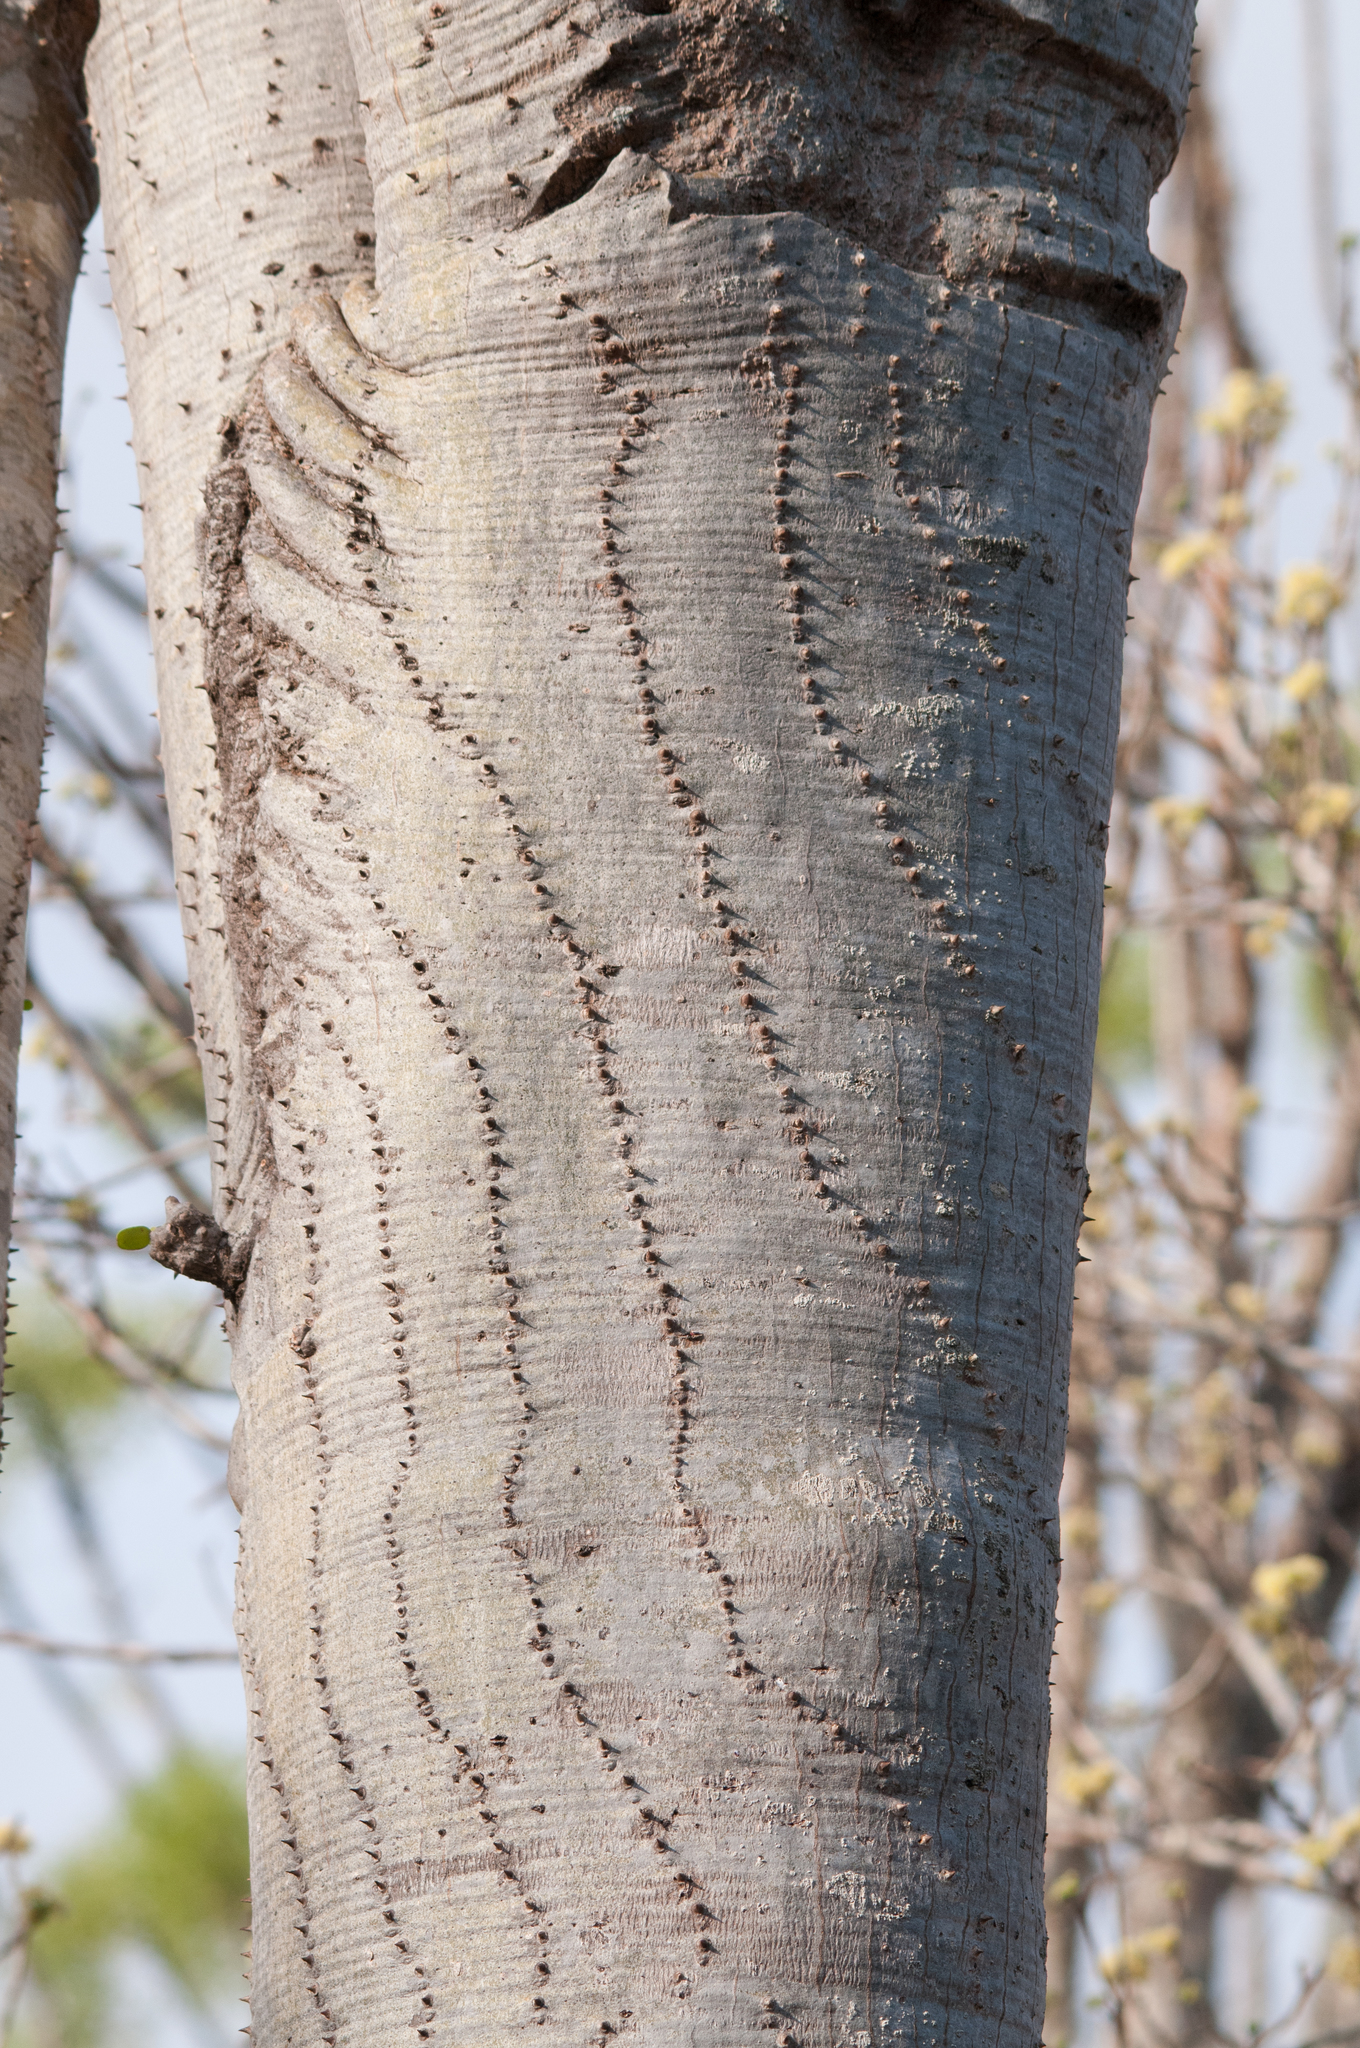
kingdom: Plantae
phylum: Tracheophyta
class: Magnoliopsida
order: Caryophyllales
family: Didiereaceae
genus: Alluaudia
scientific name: Alluaudia procera
